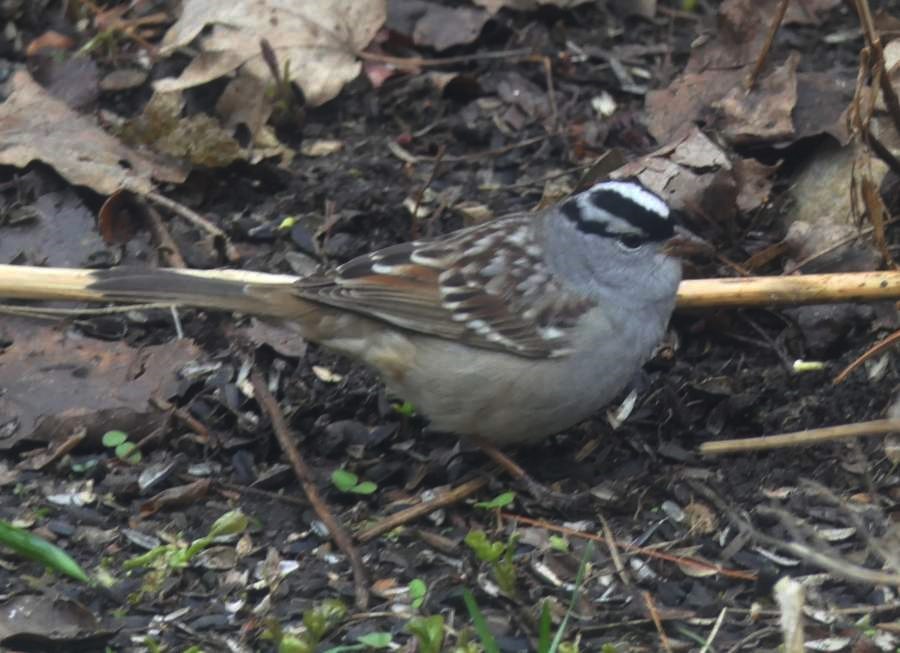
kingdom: Animalia
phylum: Chordata
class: Aves
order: Passeriformes
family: Passerellidae
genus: Zonotrichia
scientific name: Zonotrichia leucophrys
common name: White-crowned sparrow
